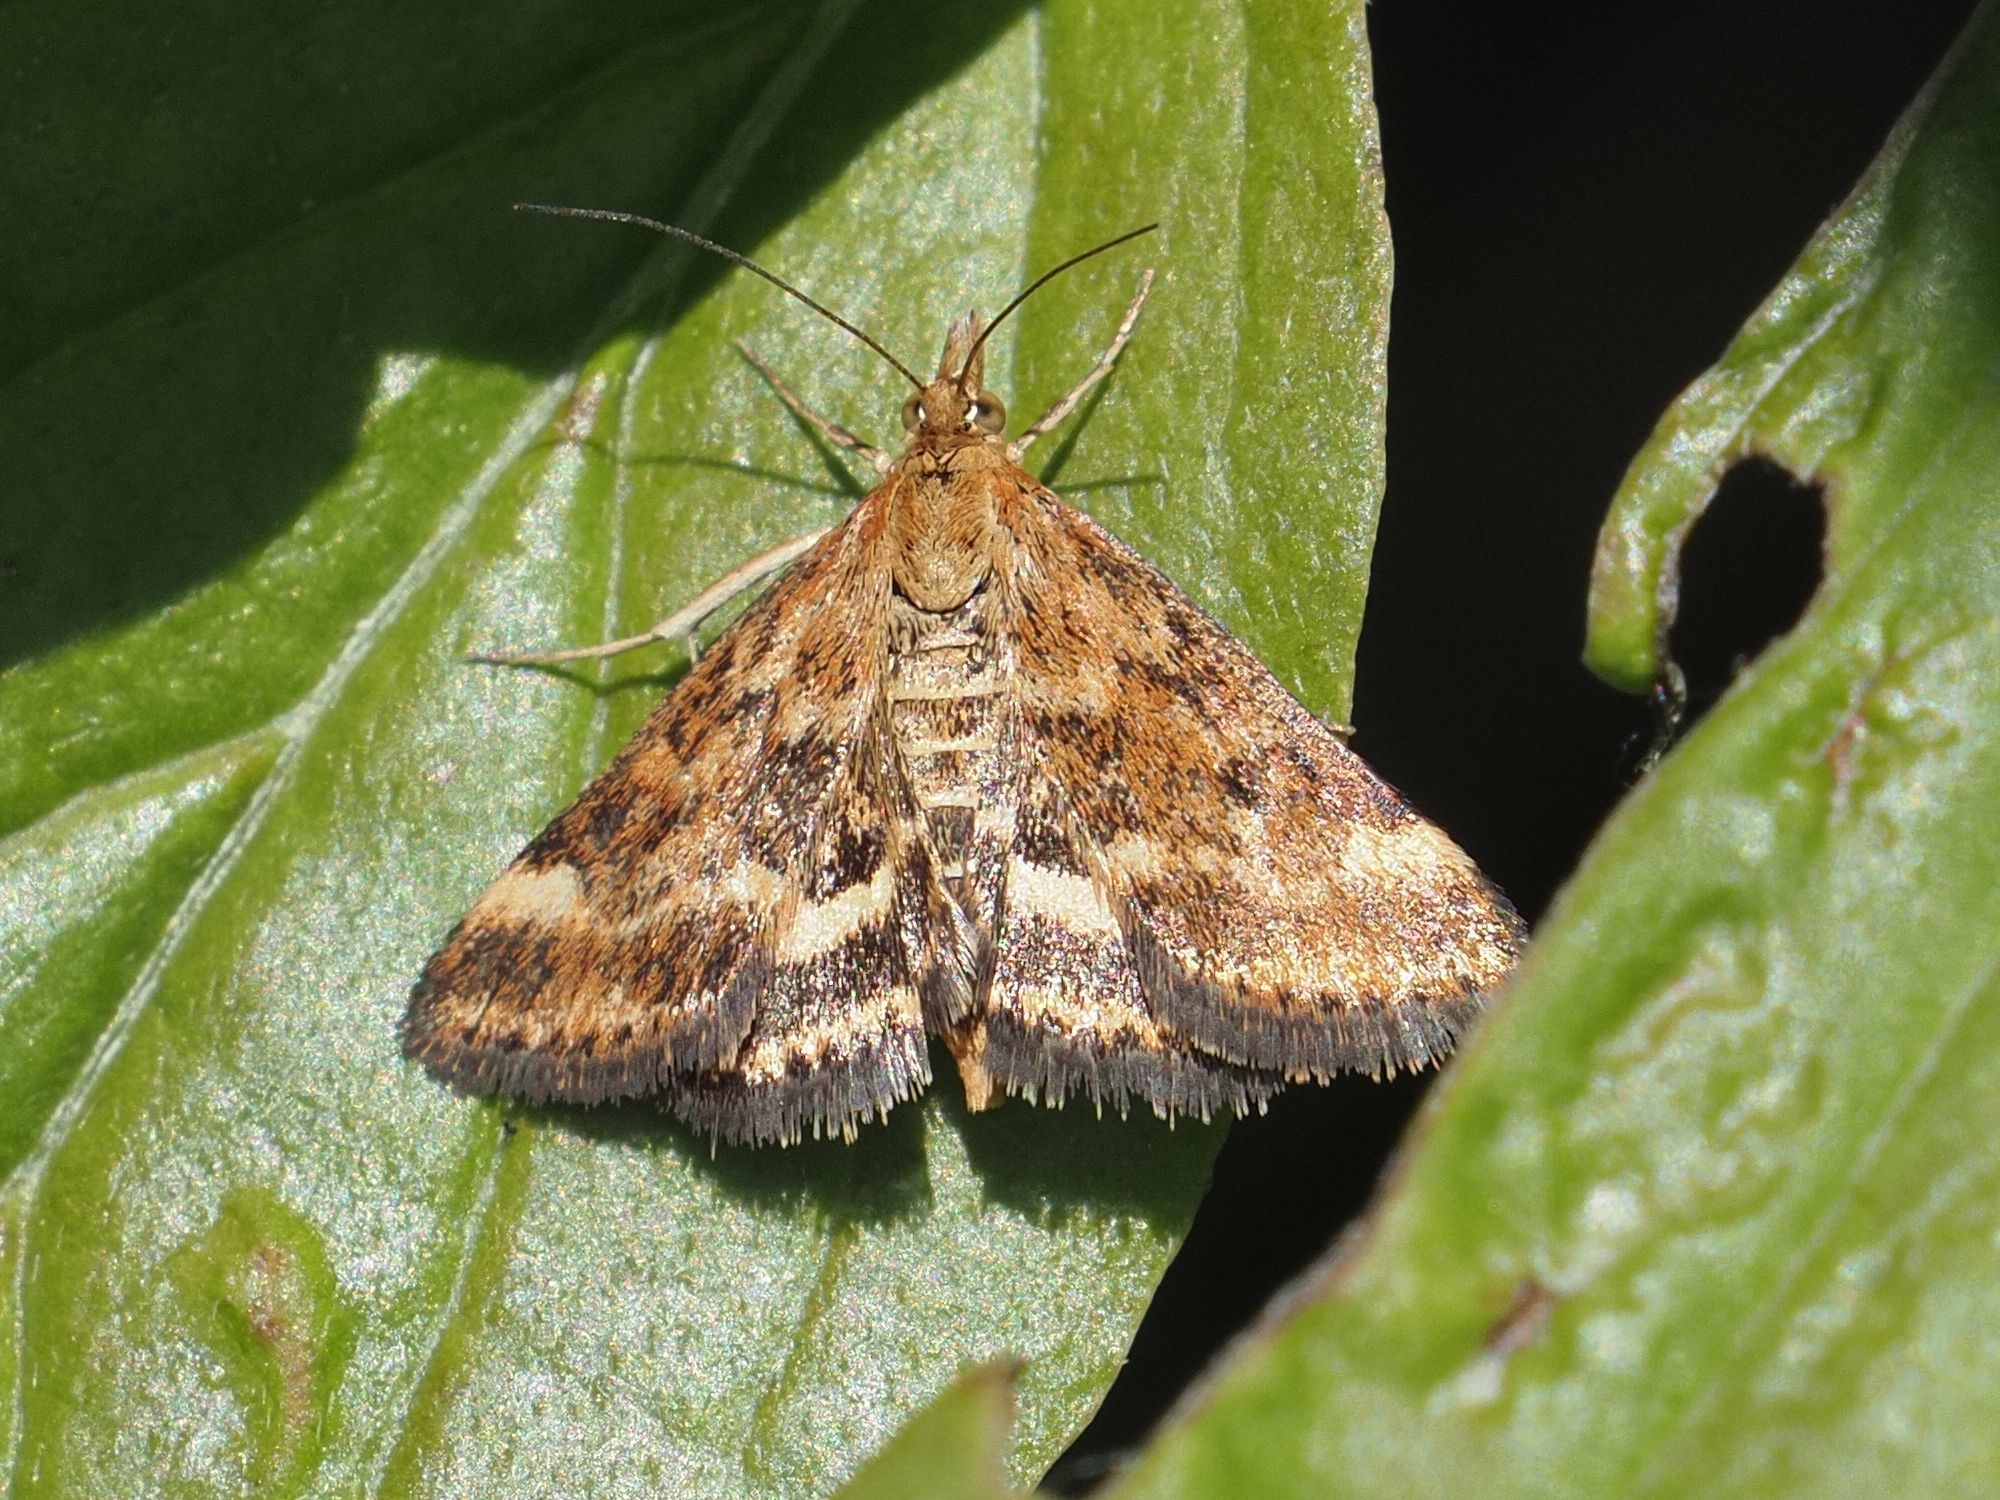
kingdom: Animalia
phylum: Arthropoda
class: Insecta
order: Lepidoptera
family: Crambidae
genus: Pyrausta
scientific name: Pyrausta despicata
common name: Straw-barred pearl
